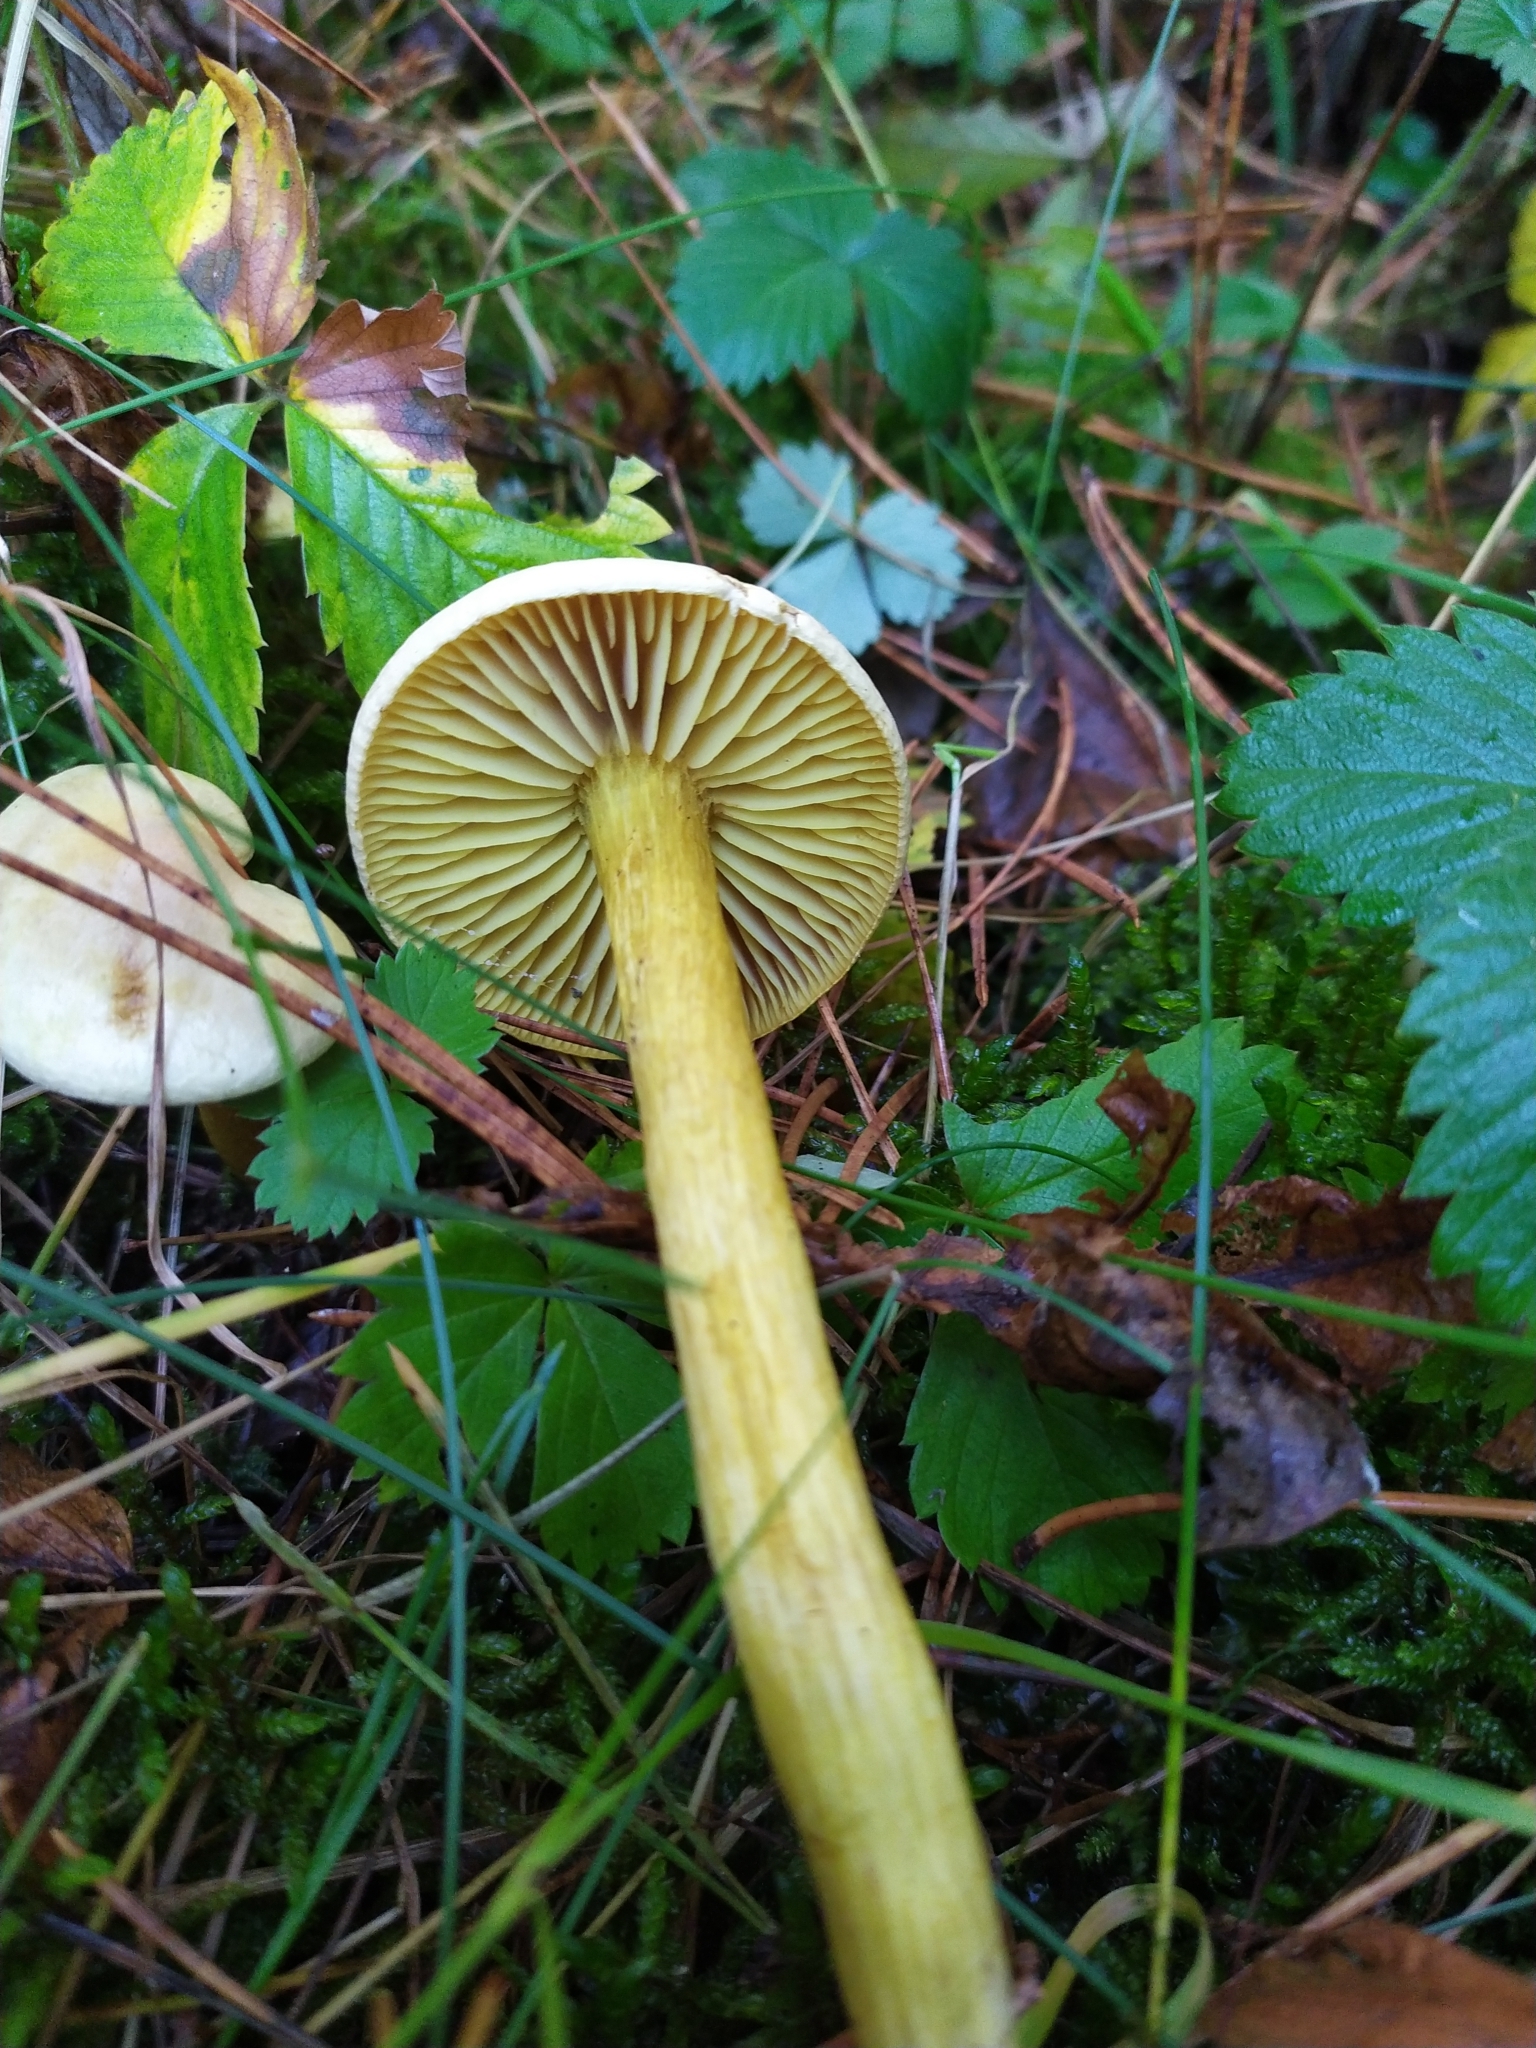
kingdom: Fungi
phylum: Basidiomycota
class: Agaricomycetes
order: Agaricales
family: Tricholomataceae
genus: Tricholoma
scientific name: Tricholoma sulphureum
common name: Stinky knight
